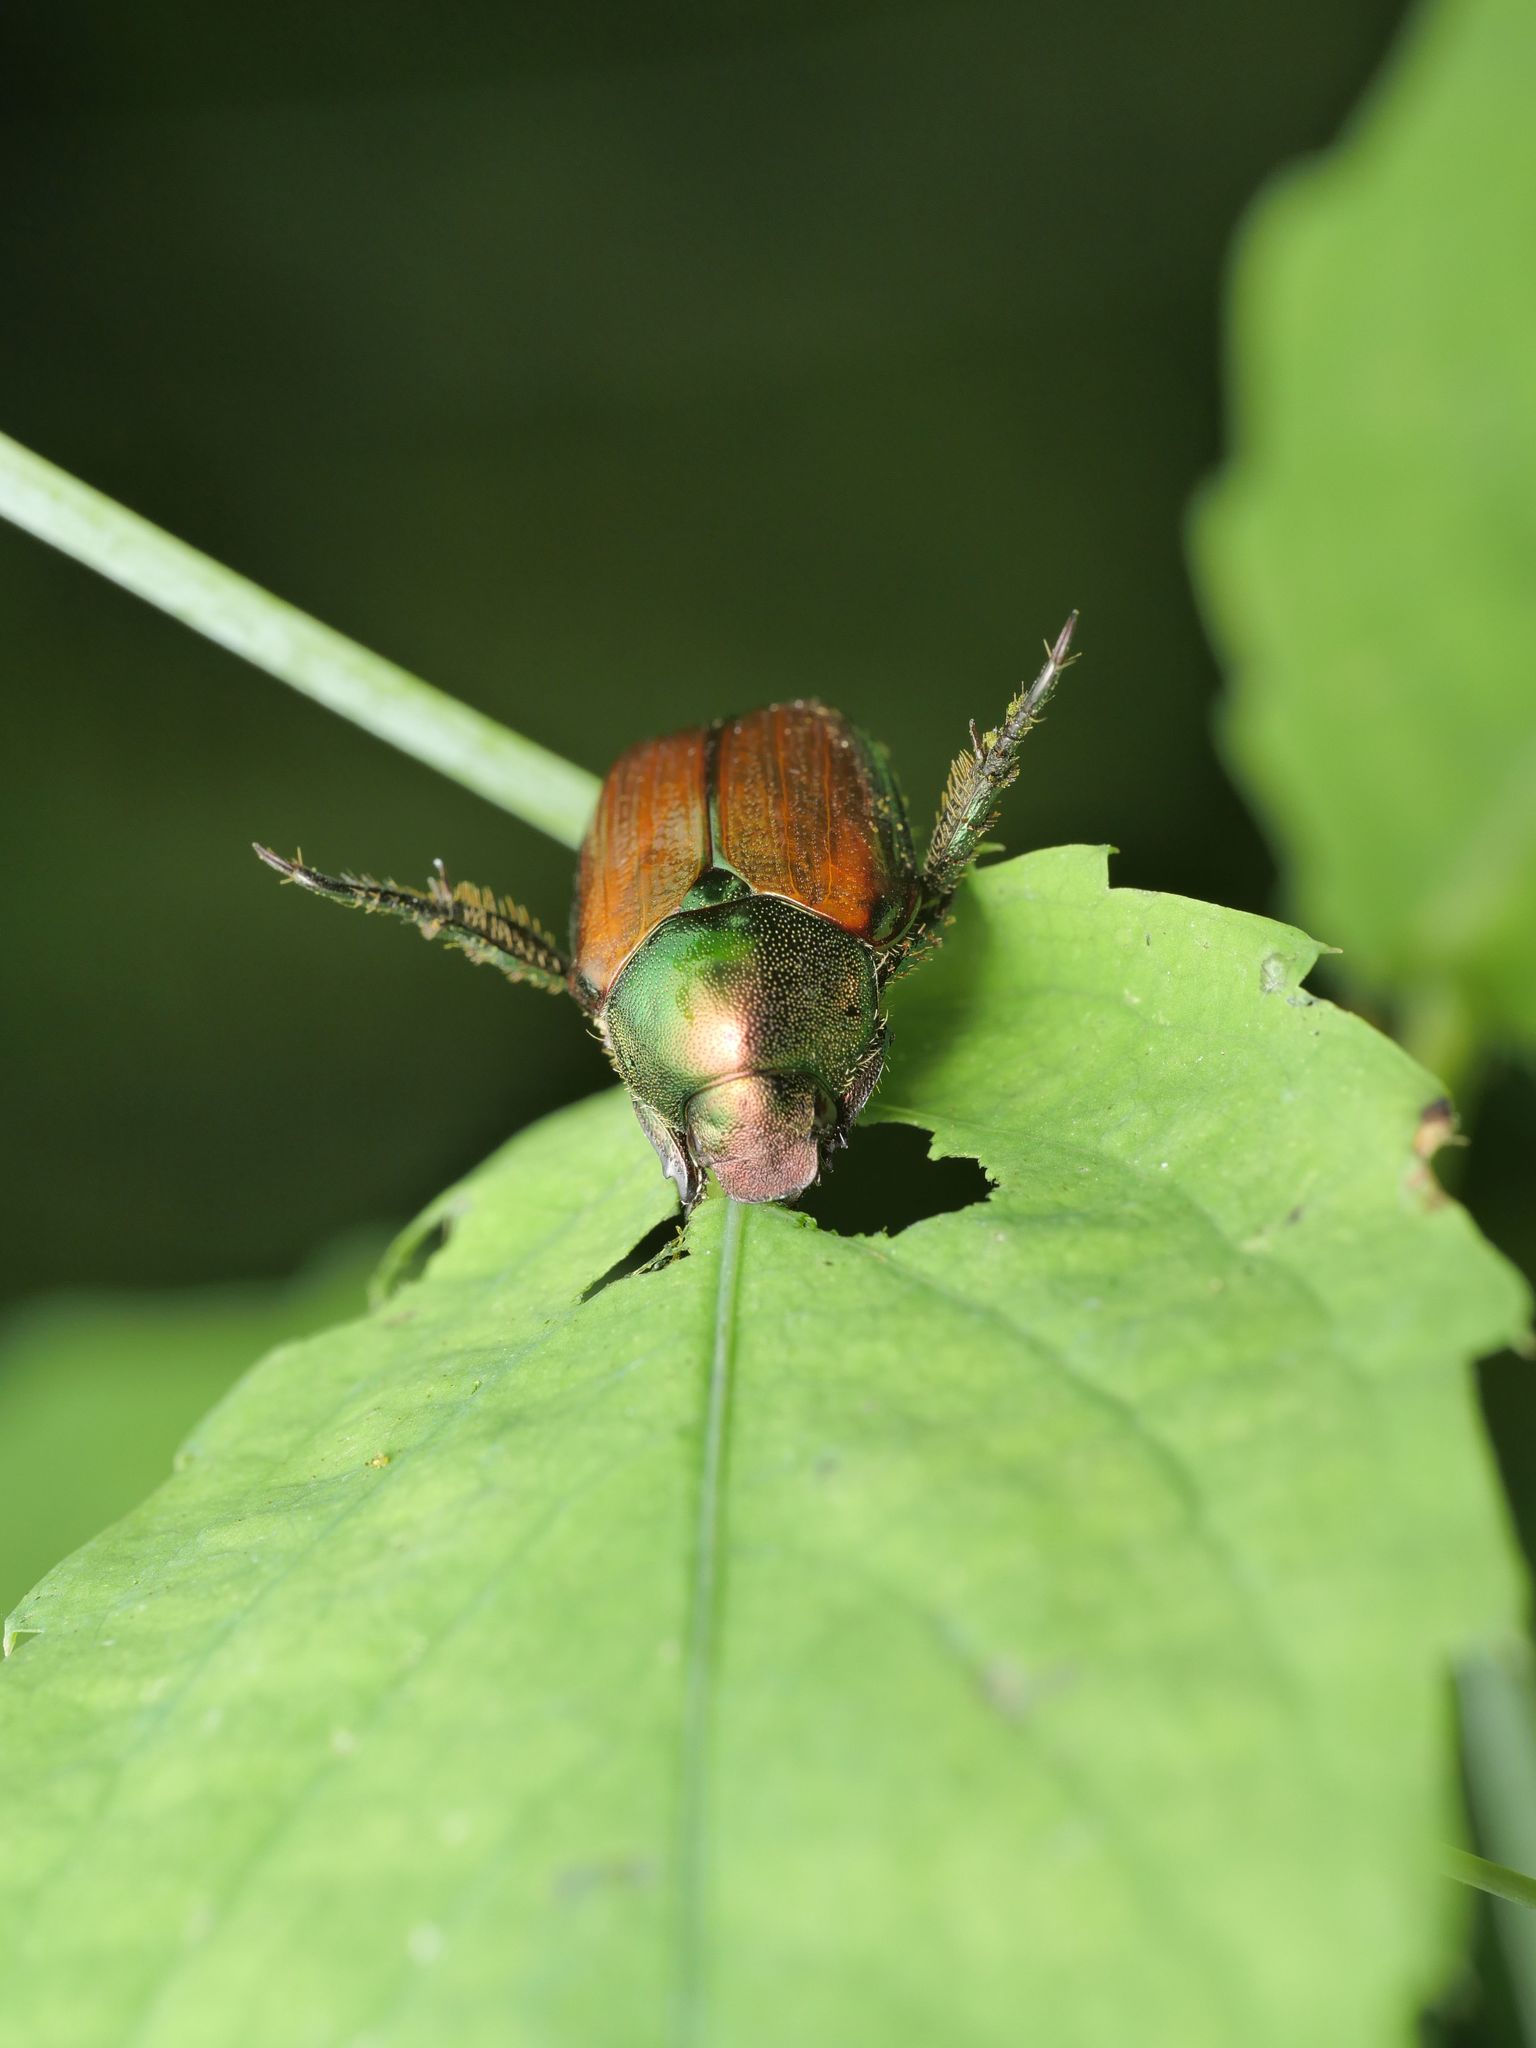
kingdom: Animalia
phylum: Arthropoda
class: Insecta
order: Coleoptera
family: Scarabaeidae
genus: Popillia
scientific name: Popillia japonica
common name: Japanese beetle
